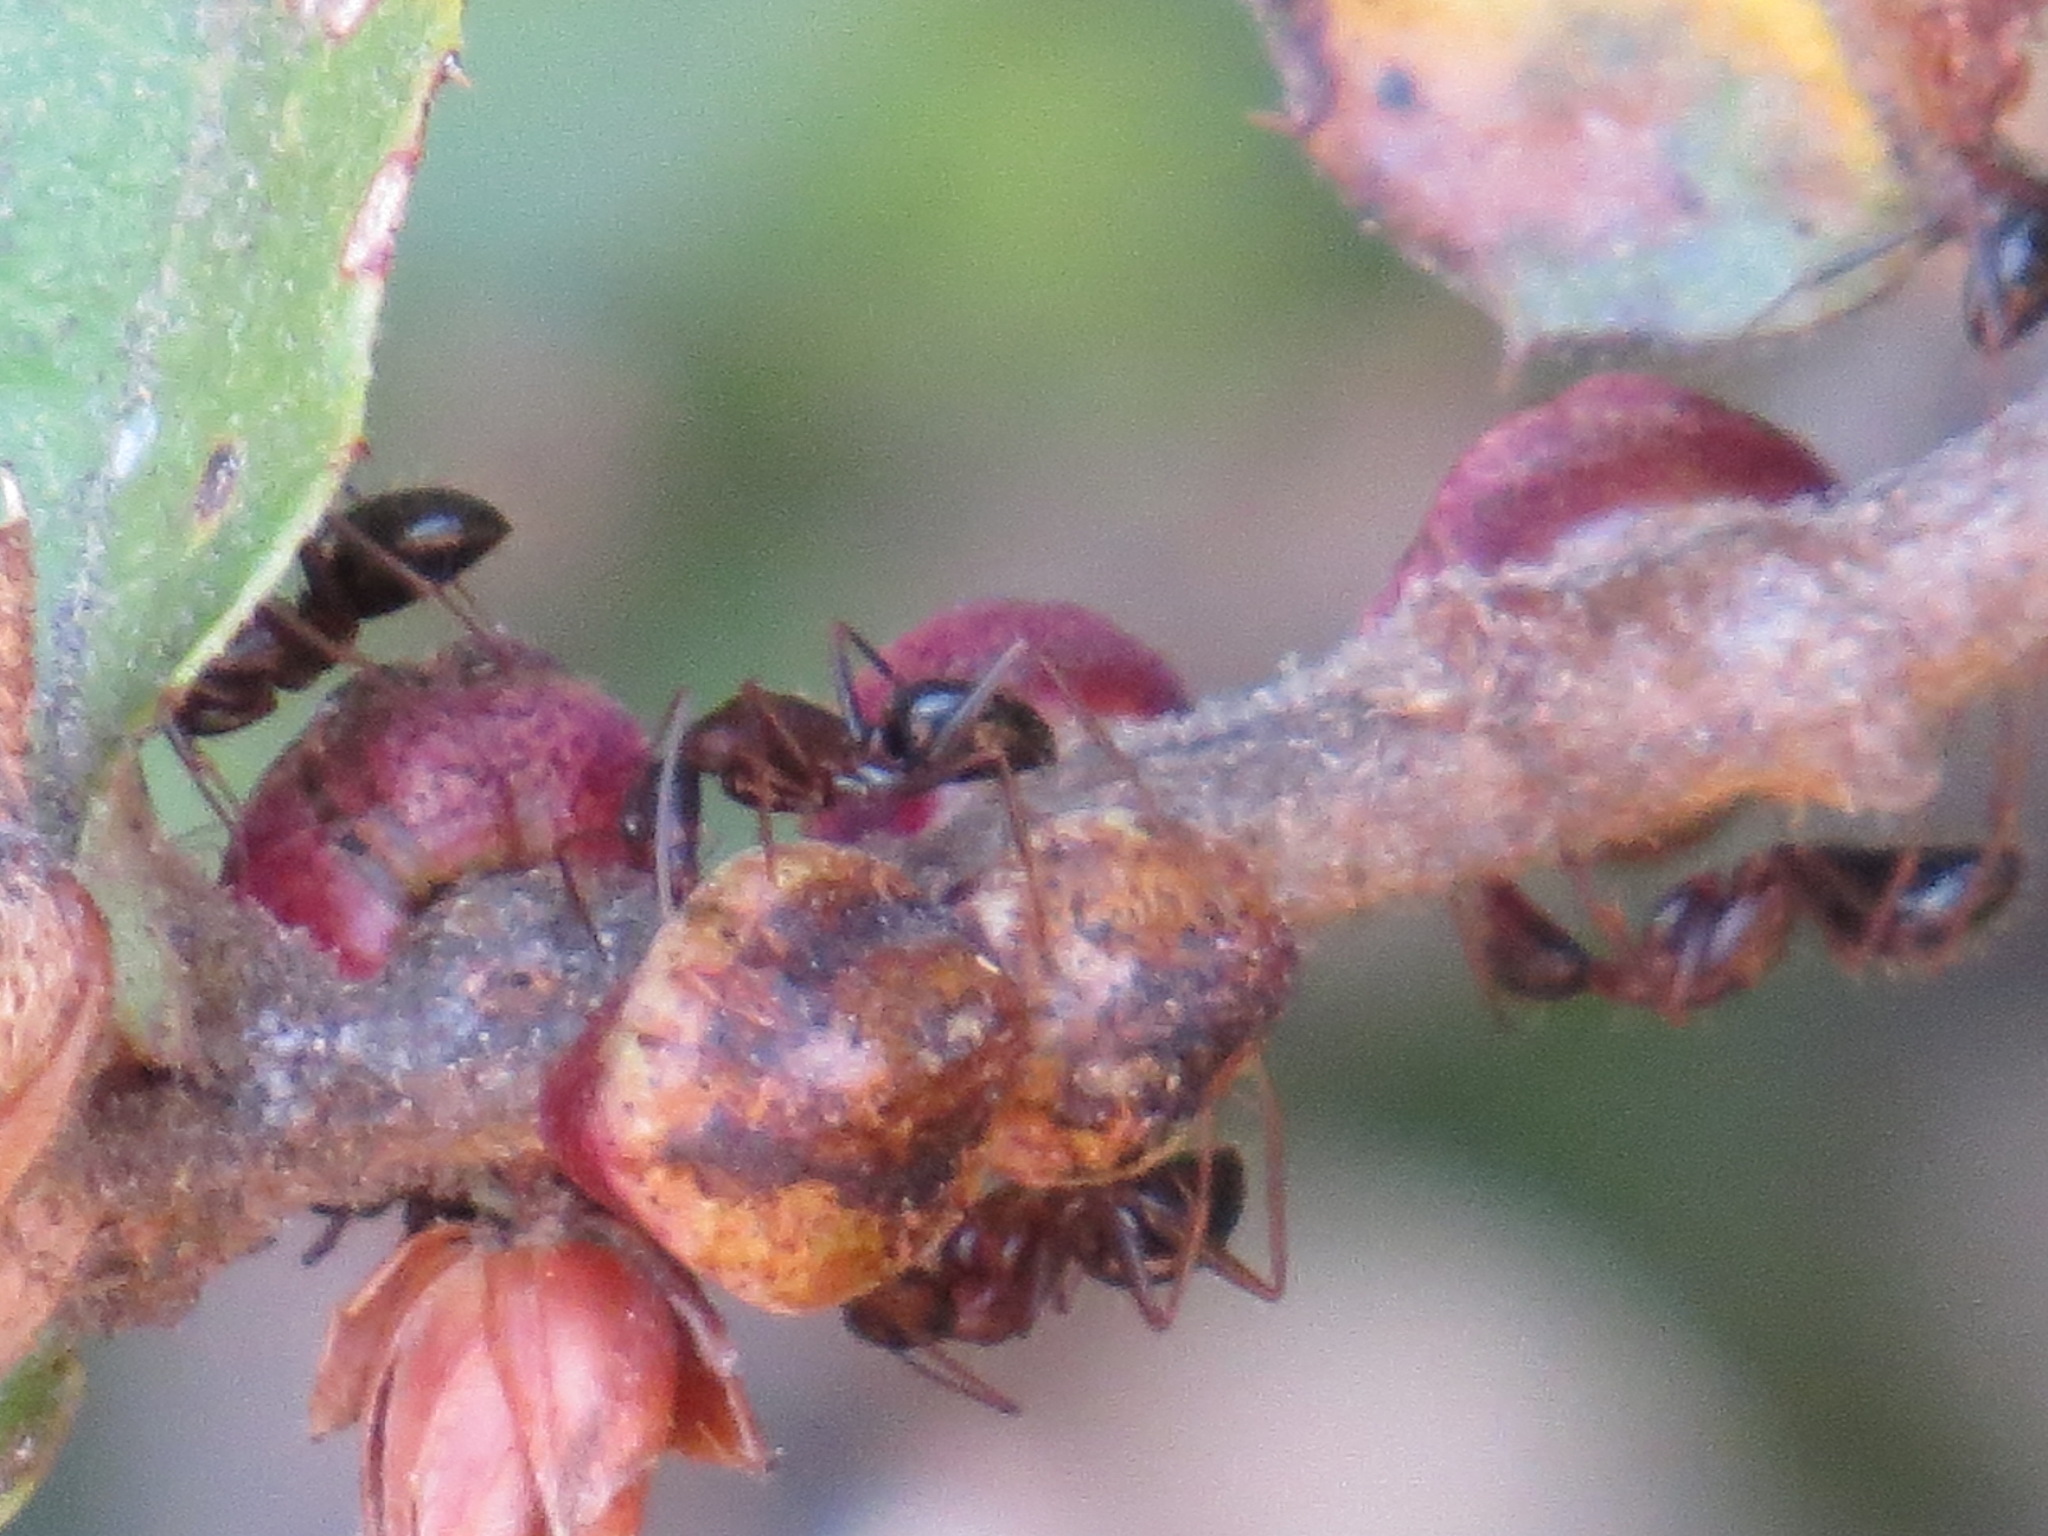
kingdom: Animalia
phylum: Arthropoda
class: Insecta
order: Hymenoptera
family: Cynipidae
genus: Disholandricus
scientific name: Disholandricus
